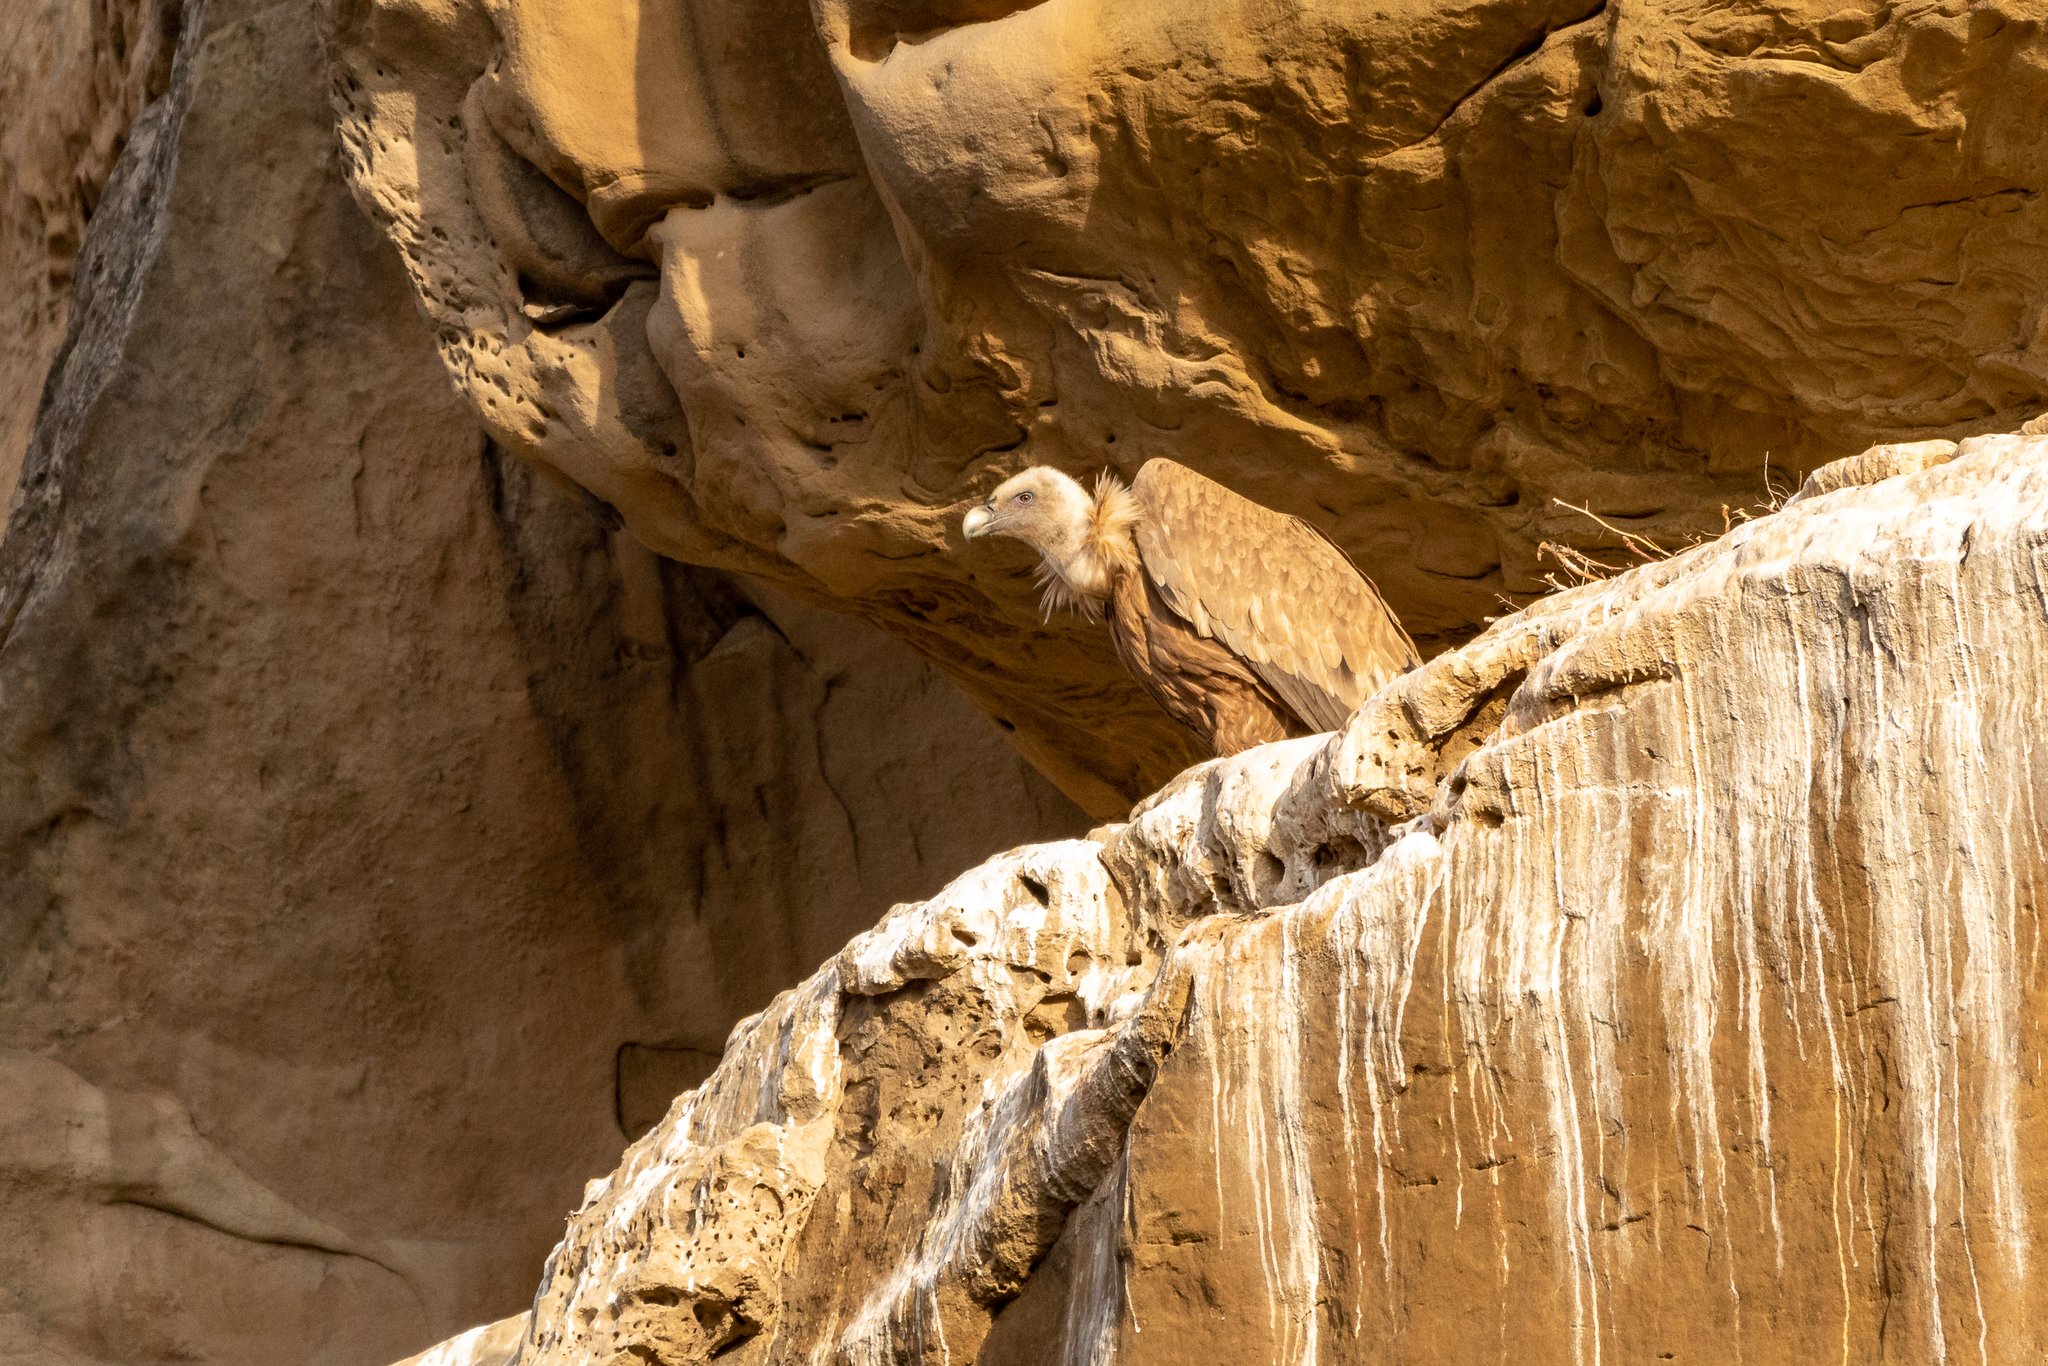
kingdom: Animalia
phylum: Chordata
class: Aves
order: Accipitriformes
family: Accipitridae
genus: Gyps
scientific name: Gyps fulvus
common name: Griffon vulture
